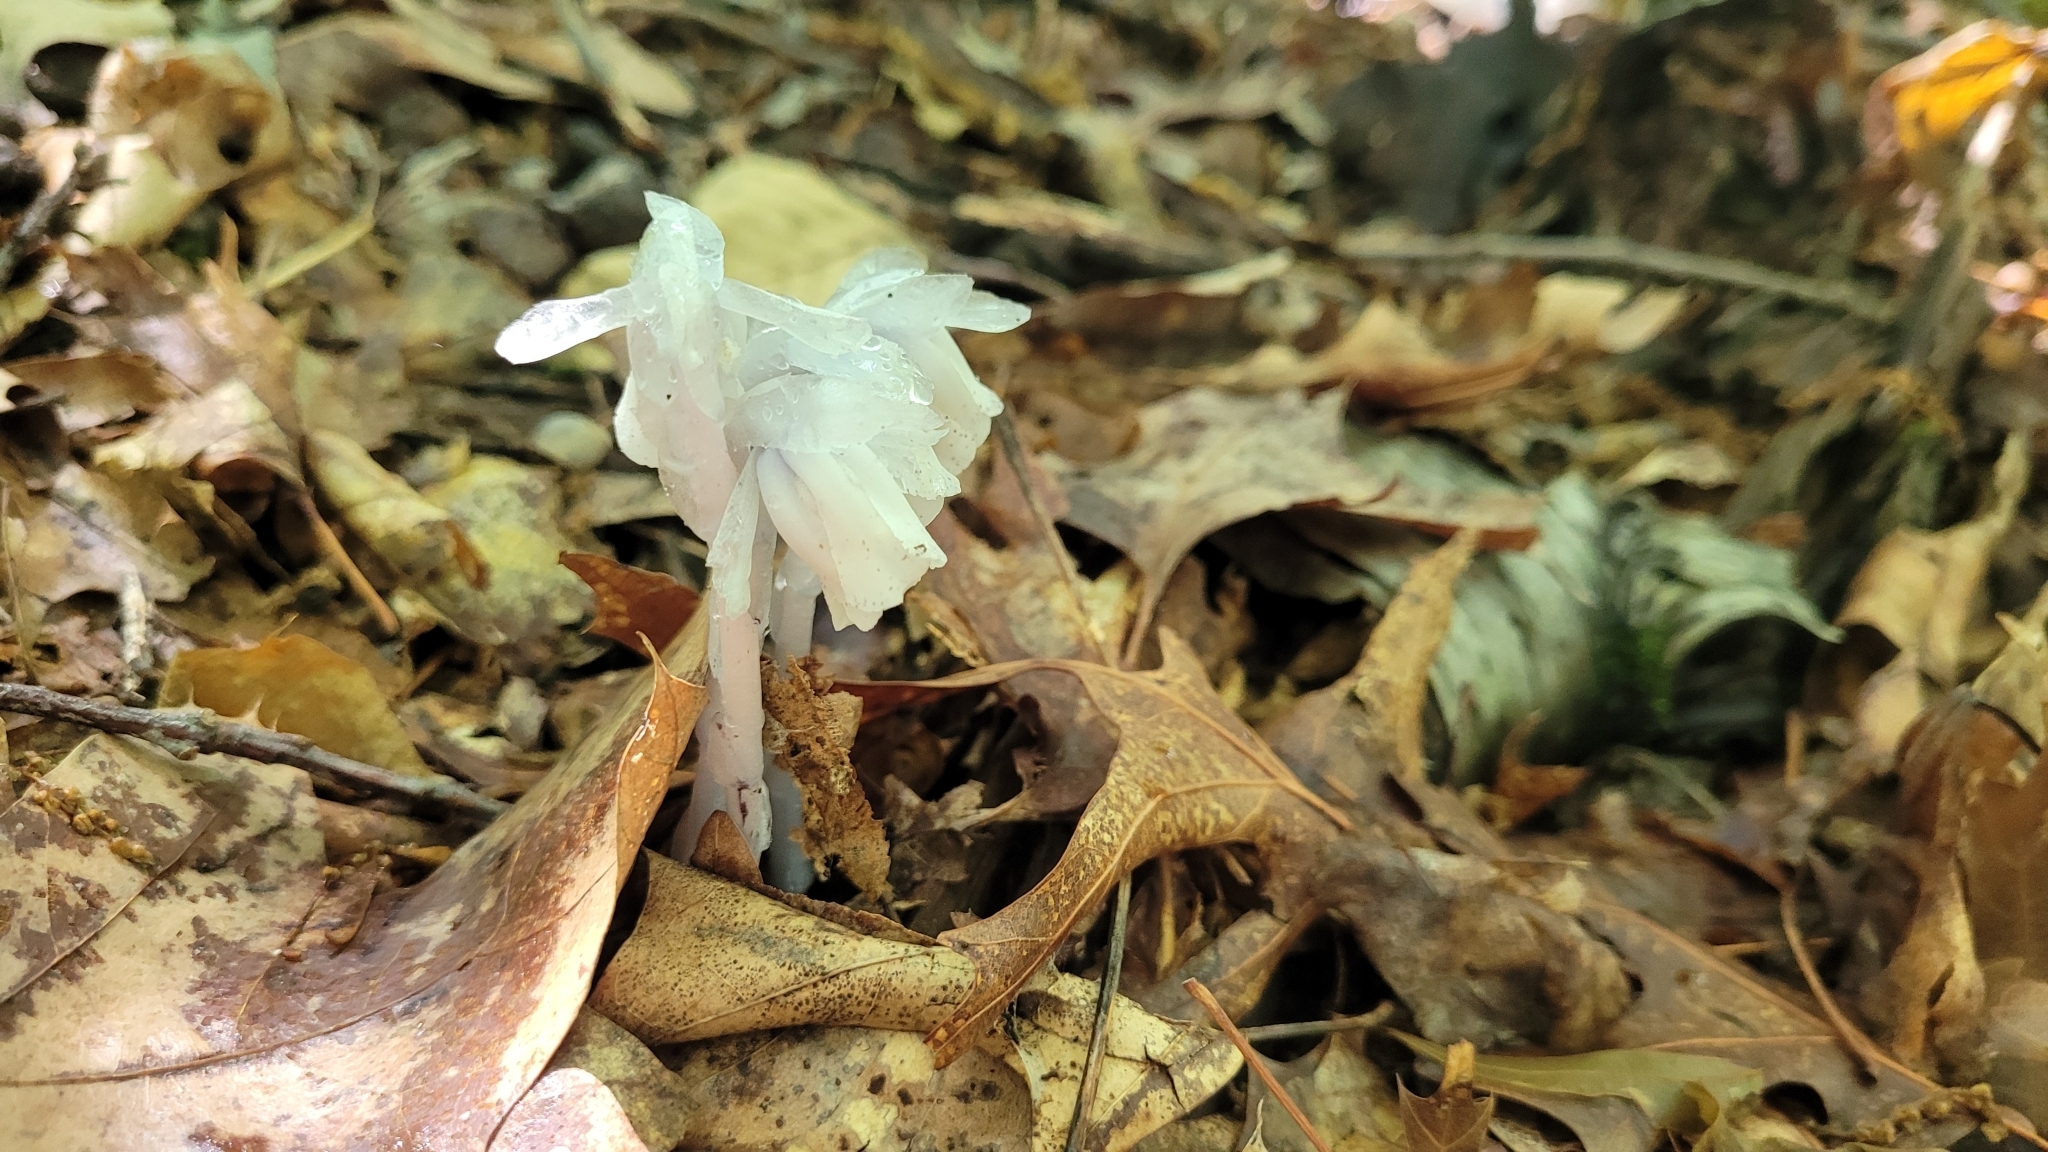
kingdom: Plantae
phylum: Tracheophyta
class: Magnoliopsida
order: Ericales
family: Ericaceae
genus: Monotropa
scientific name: Monotropa uniflora
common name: Convulsion root
